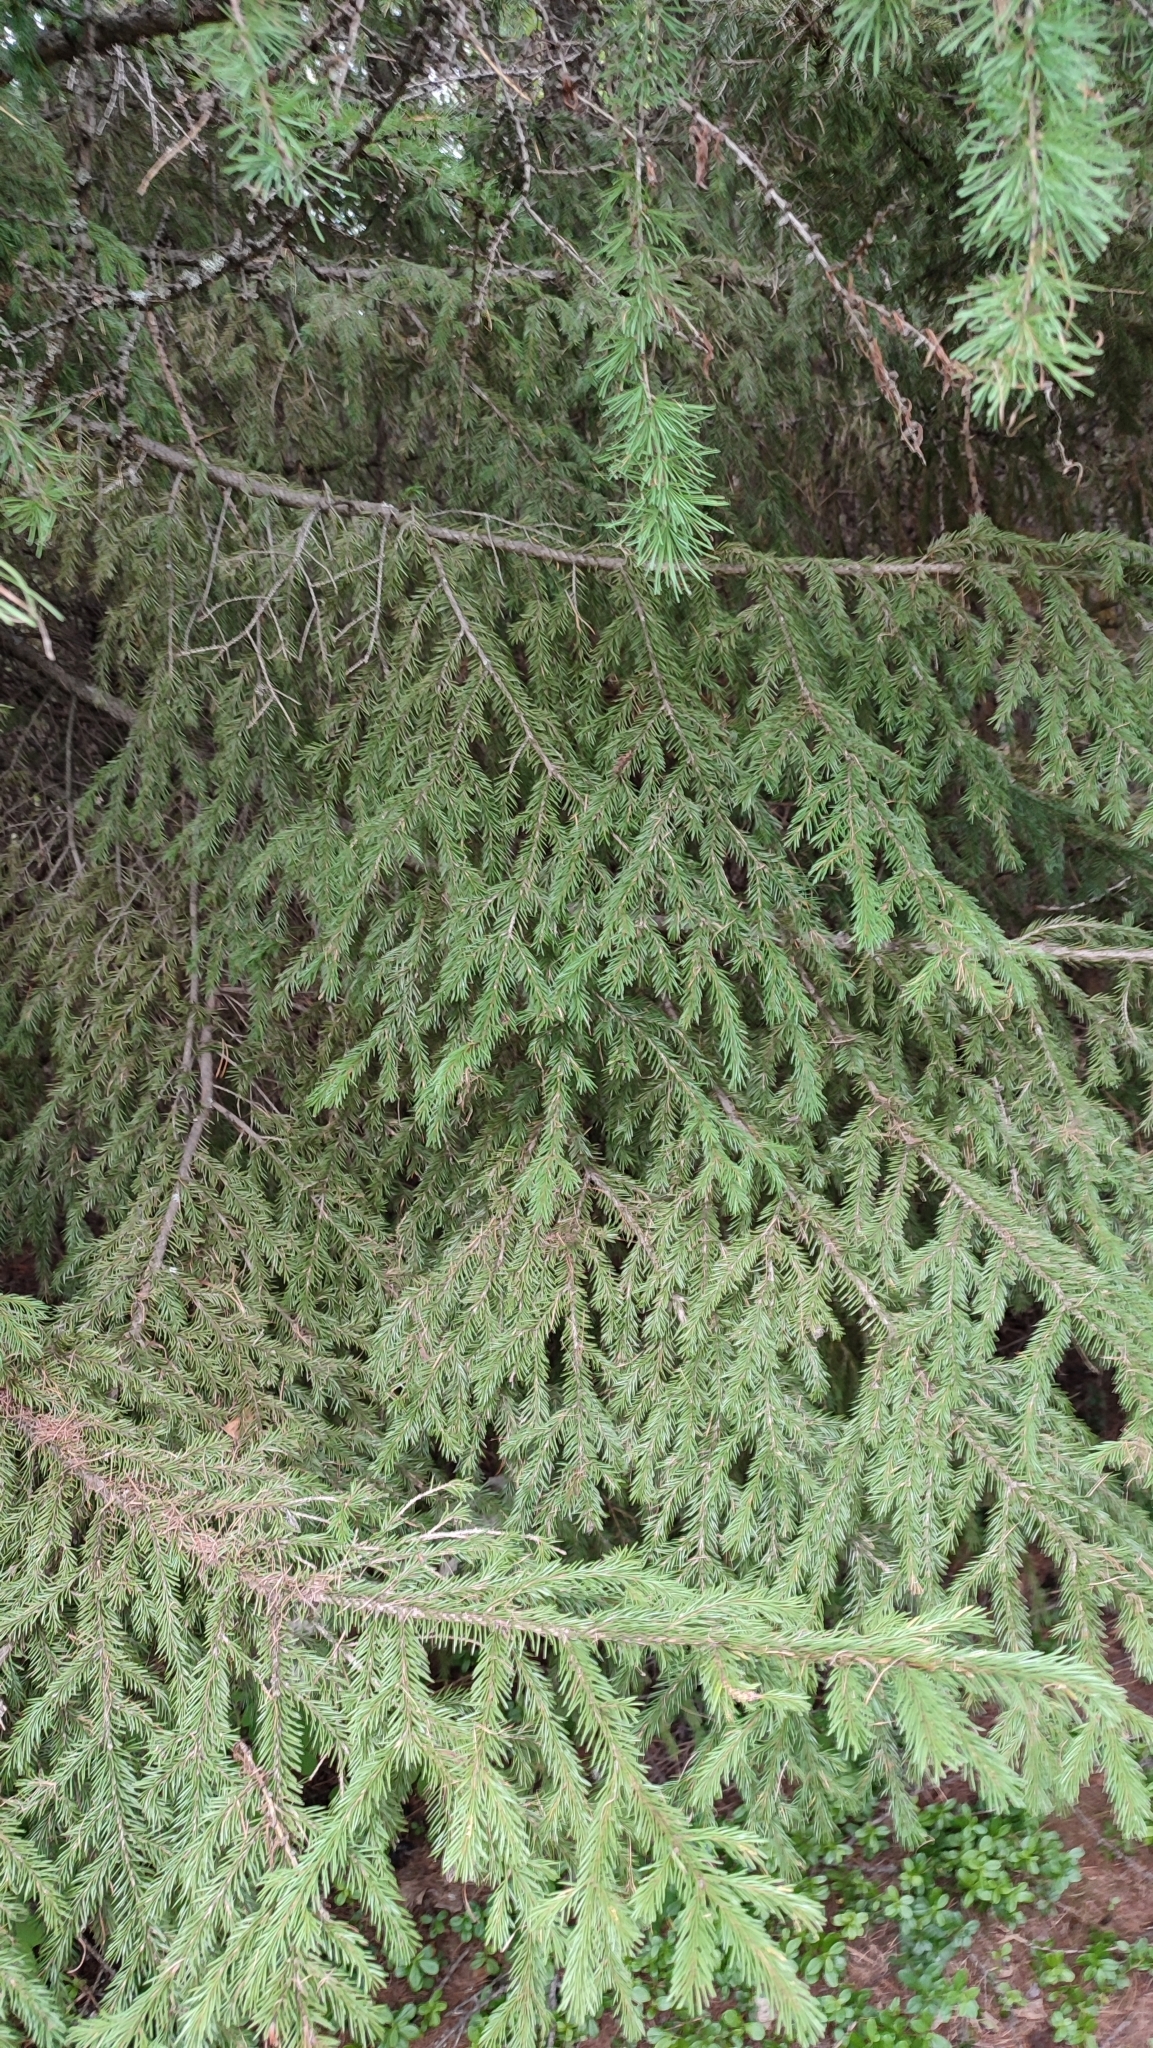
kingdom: Plantae
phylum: Tracheophyta
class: Pinopsida
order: Pinales
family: Pinaceae
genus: Picea
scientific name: Picea obovata
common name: Siberian spruce
